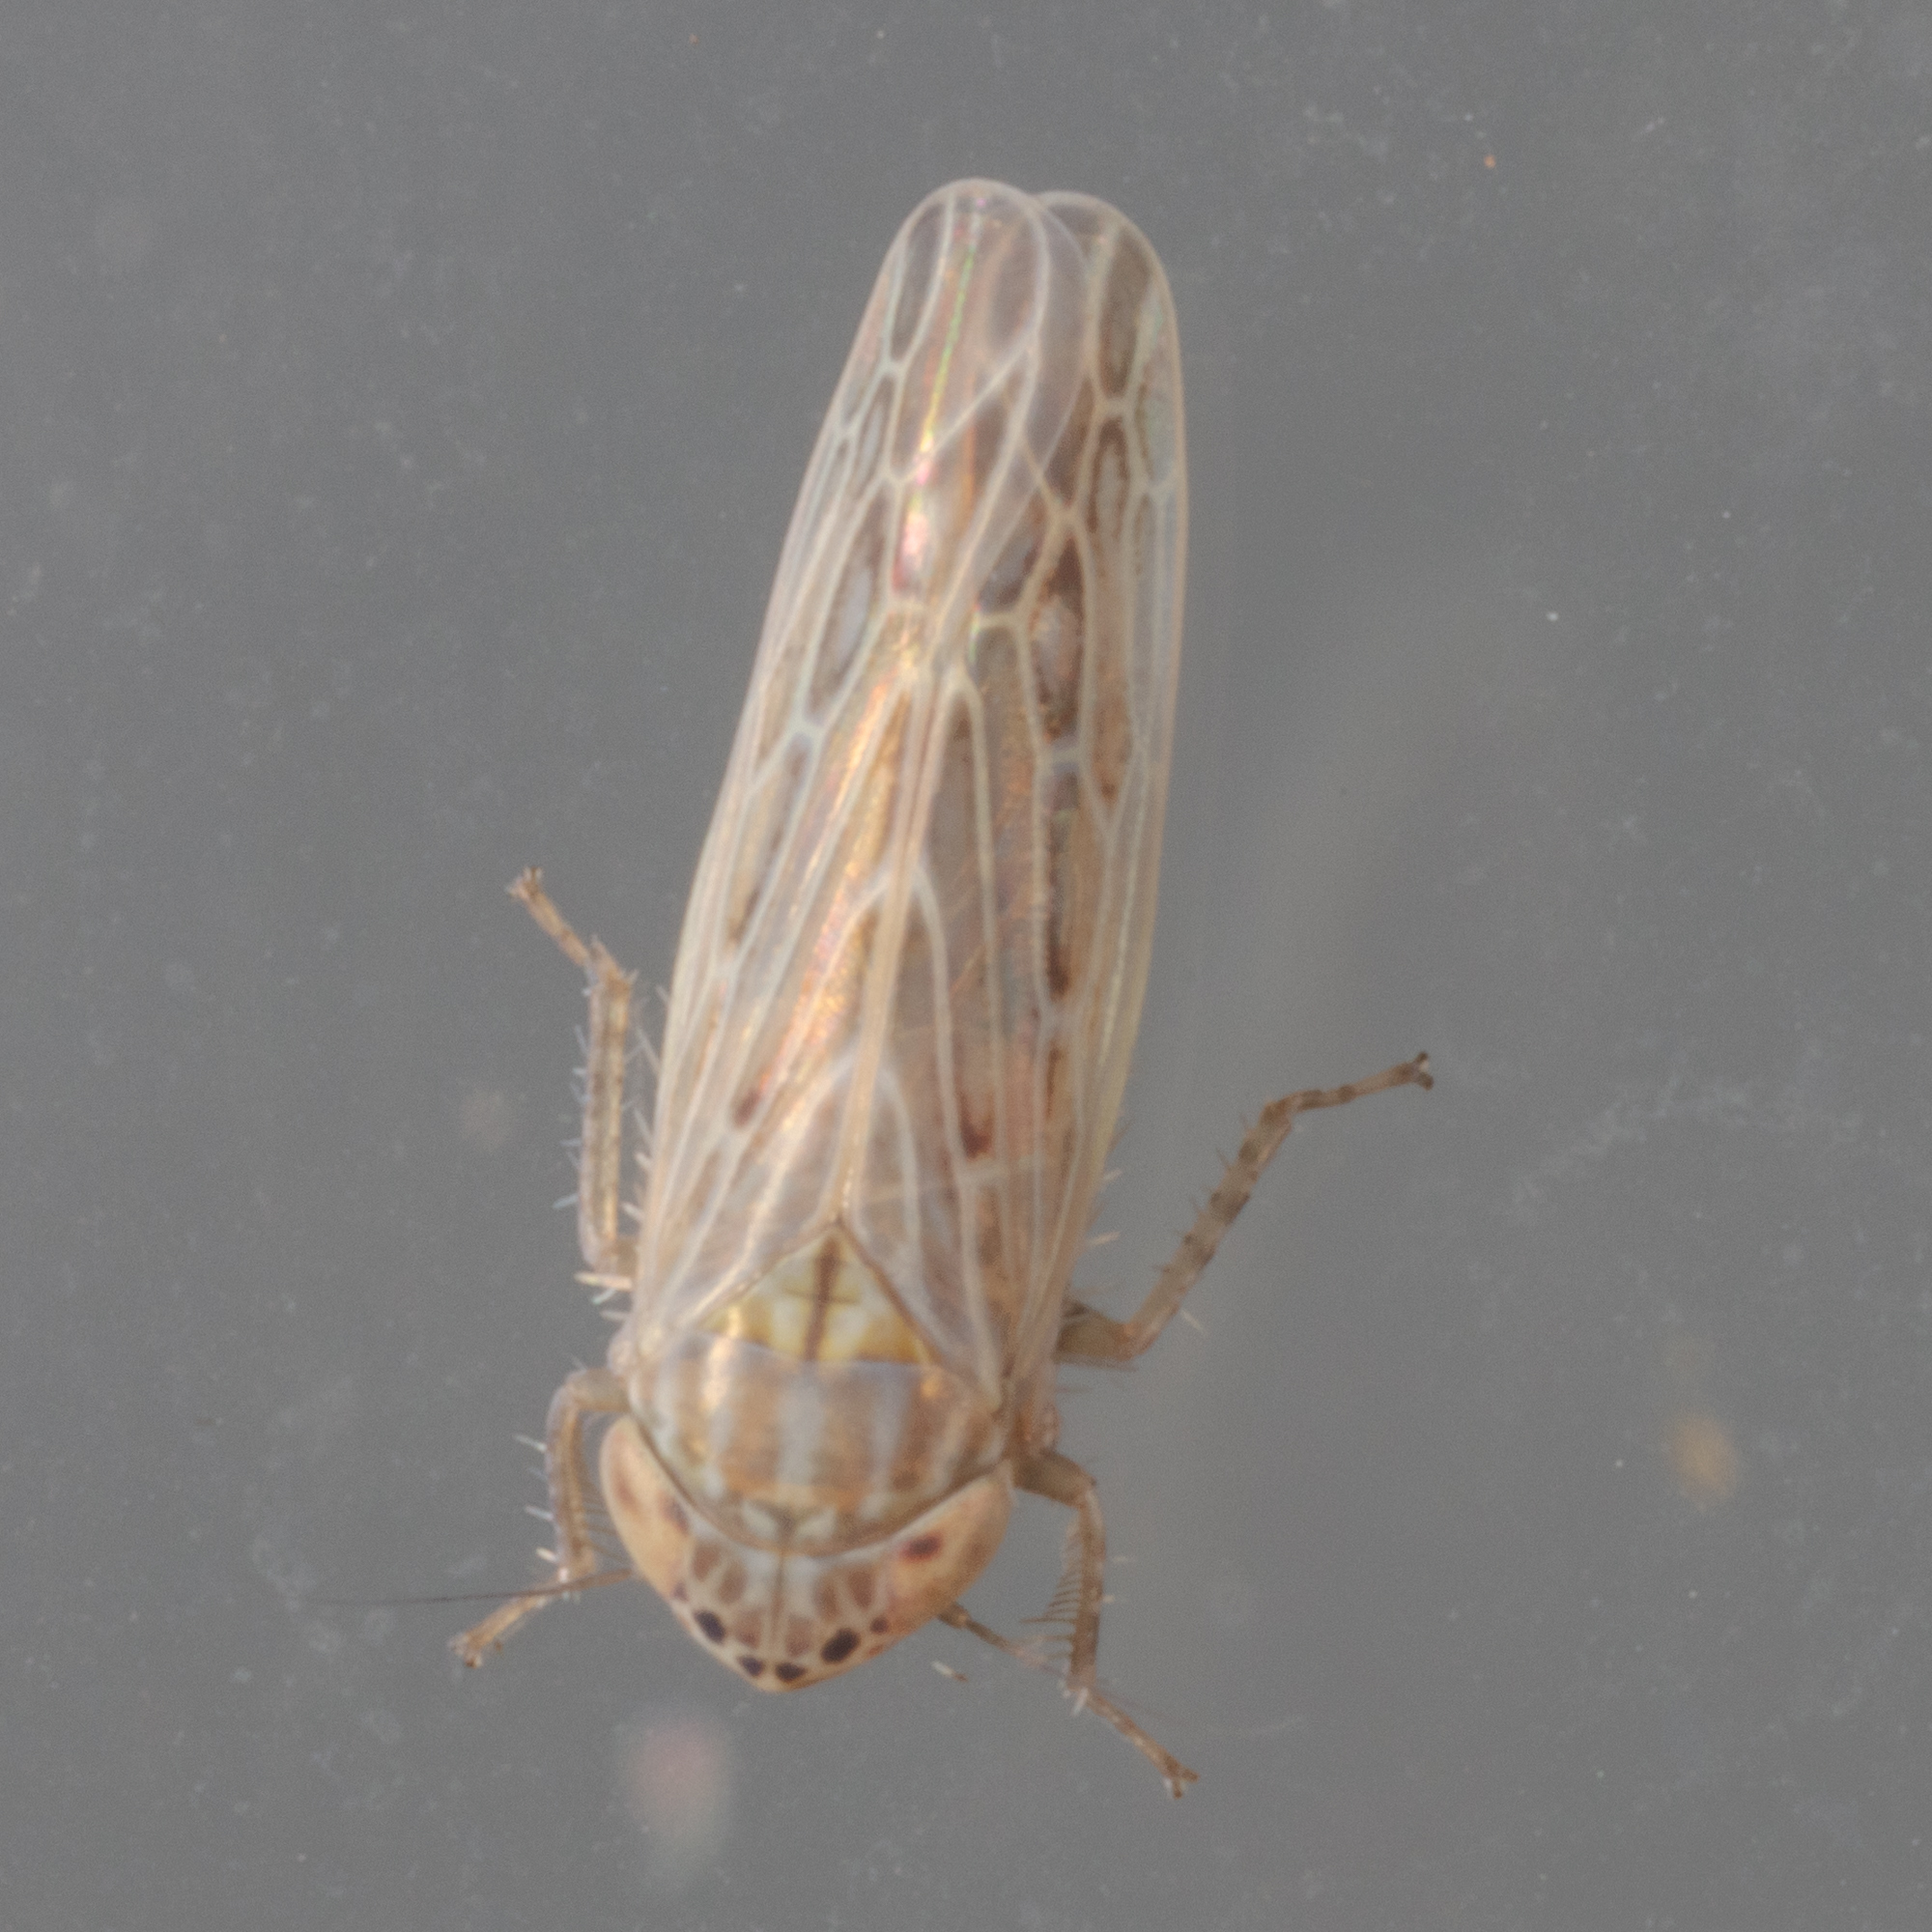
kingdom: Animalia
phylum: Arthropoda
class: Insecta
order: Hemiptera
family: Cicadellidae
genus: Graminella
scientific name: Graminella sonora
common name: Lesser lawn leafhopper
